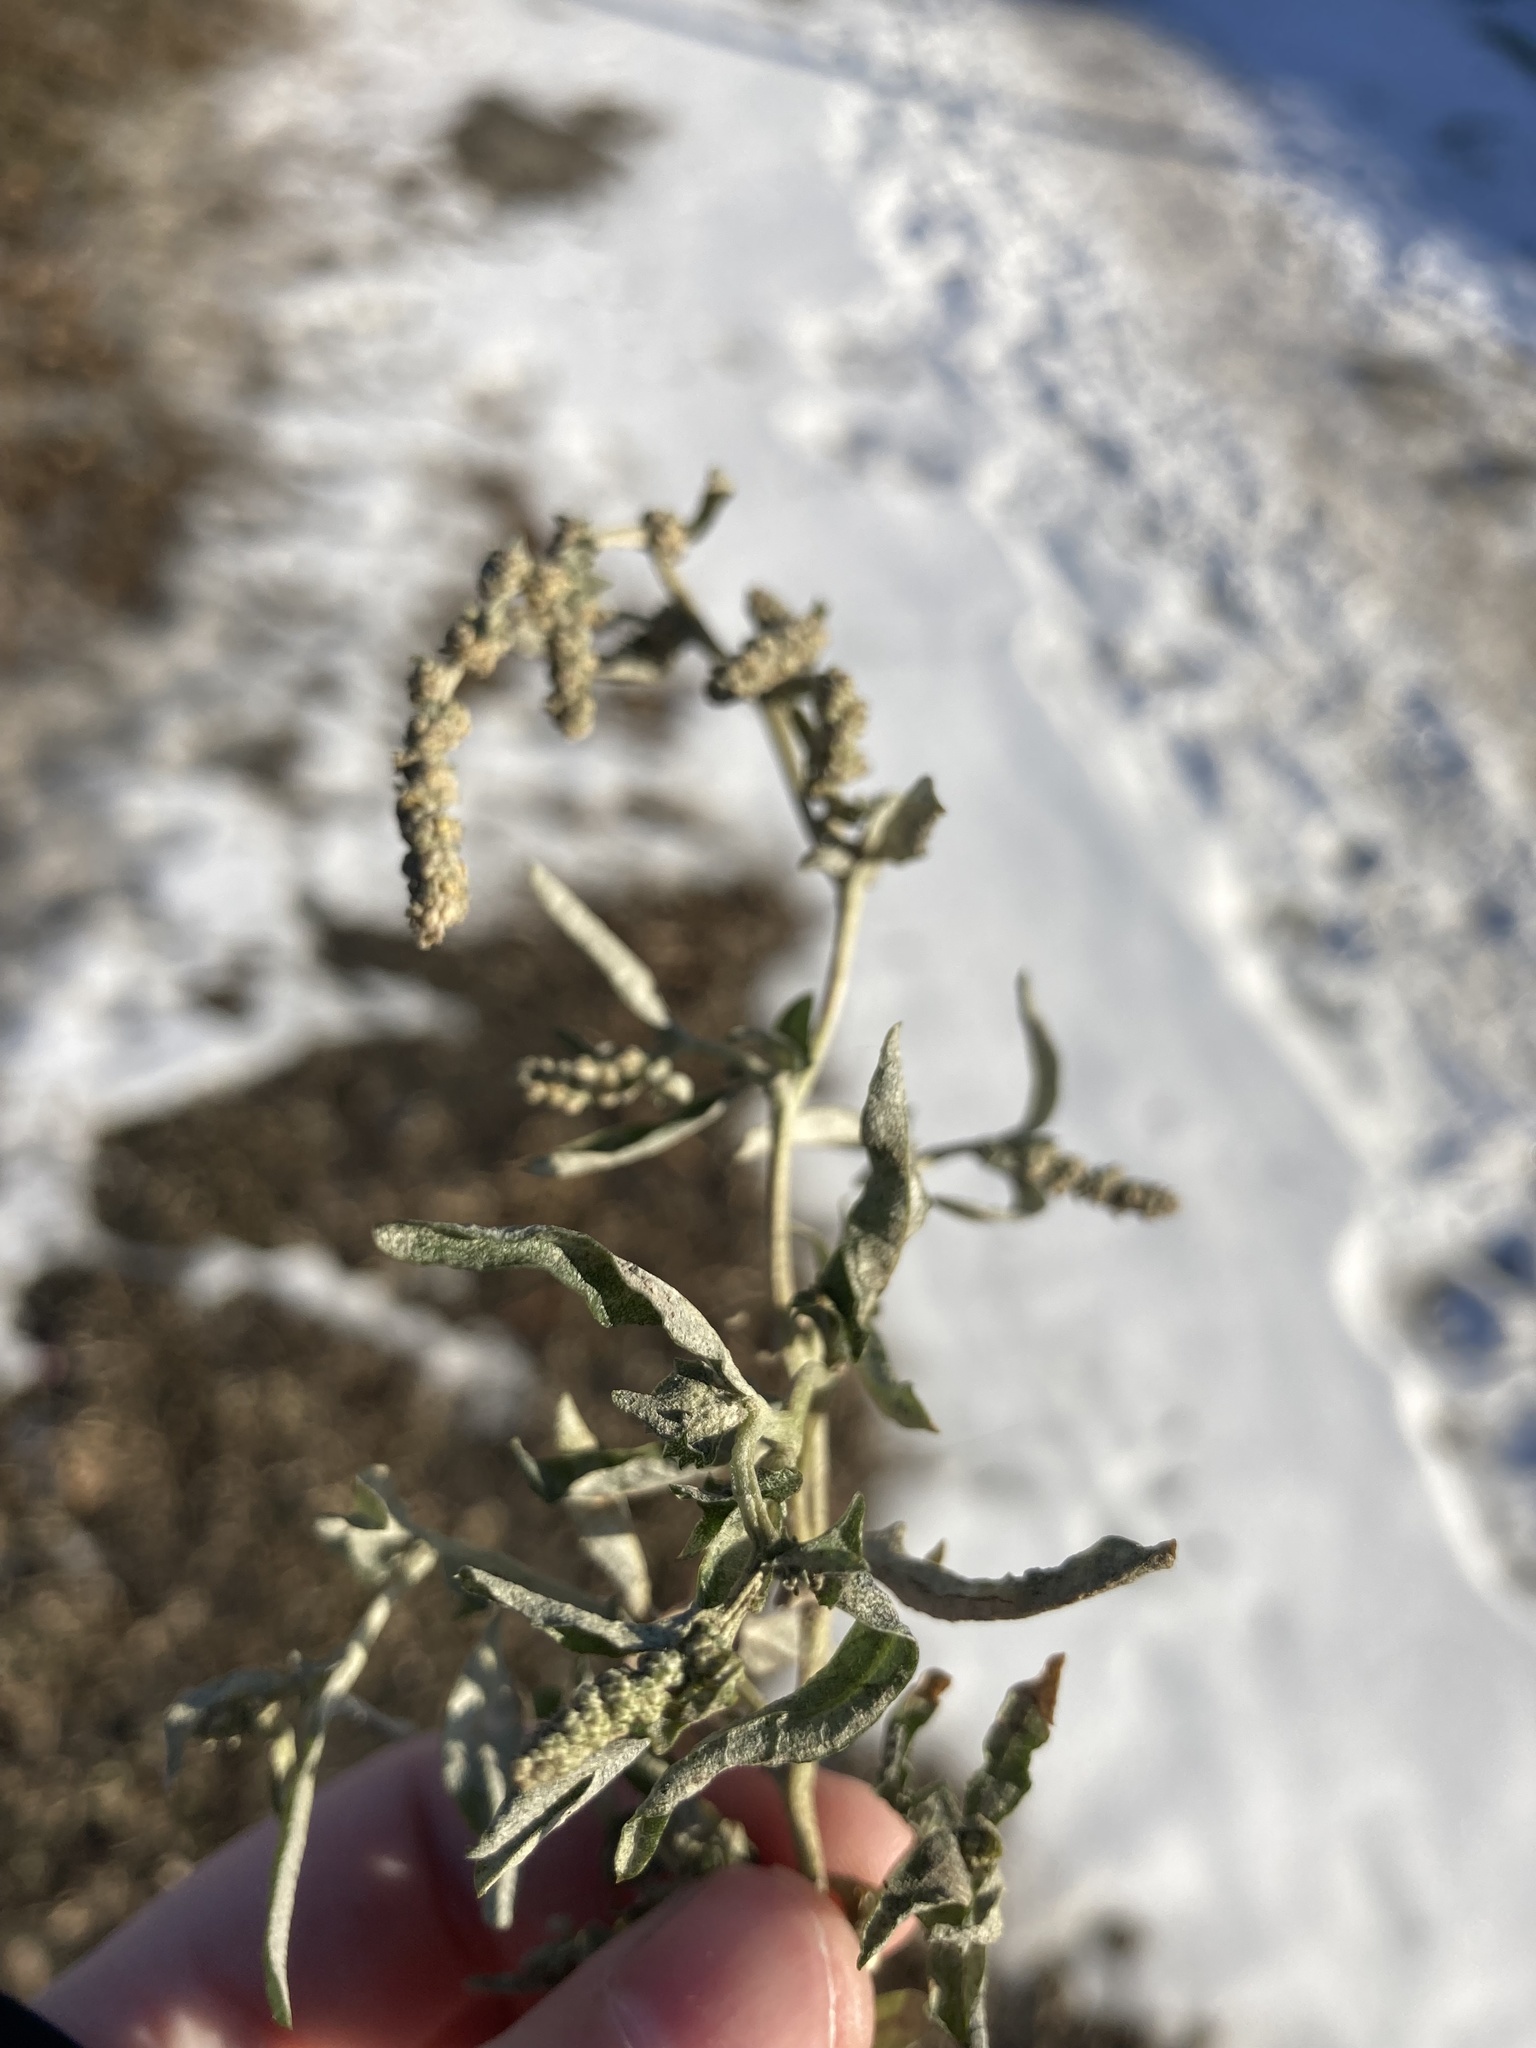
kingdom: Plantae
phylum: Tracheophyta
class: Magnoliopsida
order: Caryophyllales
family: Amaranthaceae
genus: Atriplex
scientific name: Atriplex tatarica
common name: Tatarian orache
